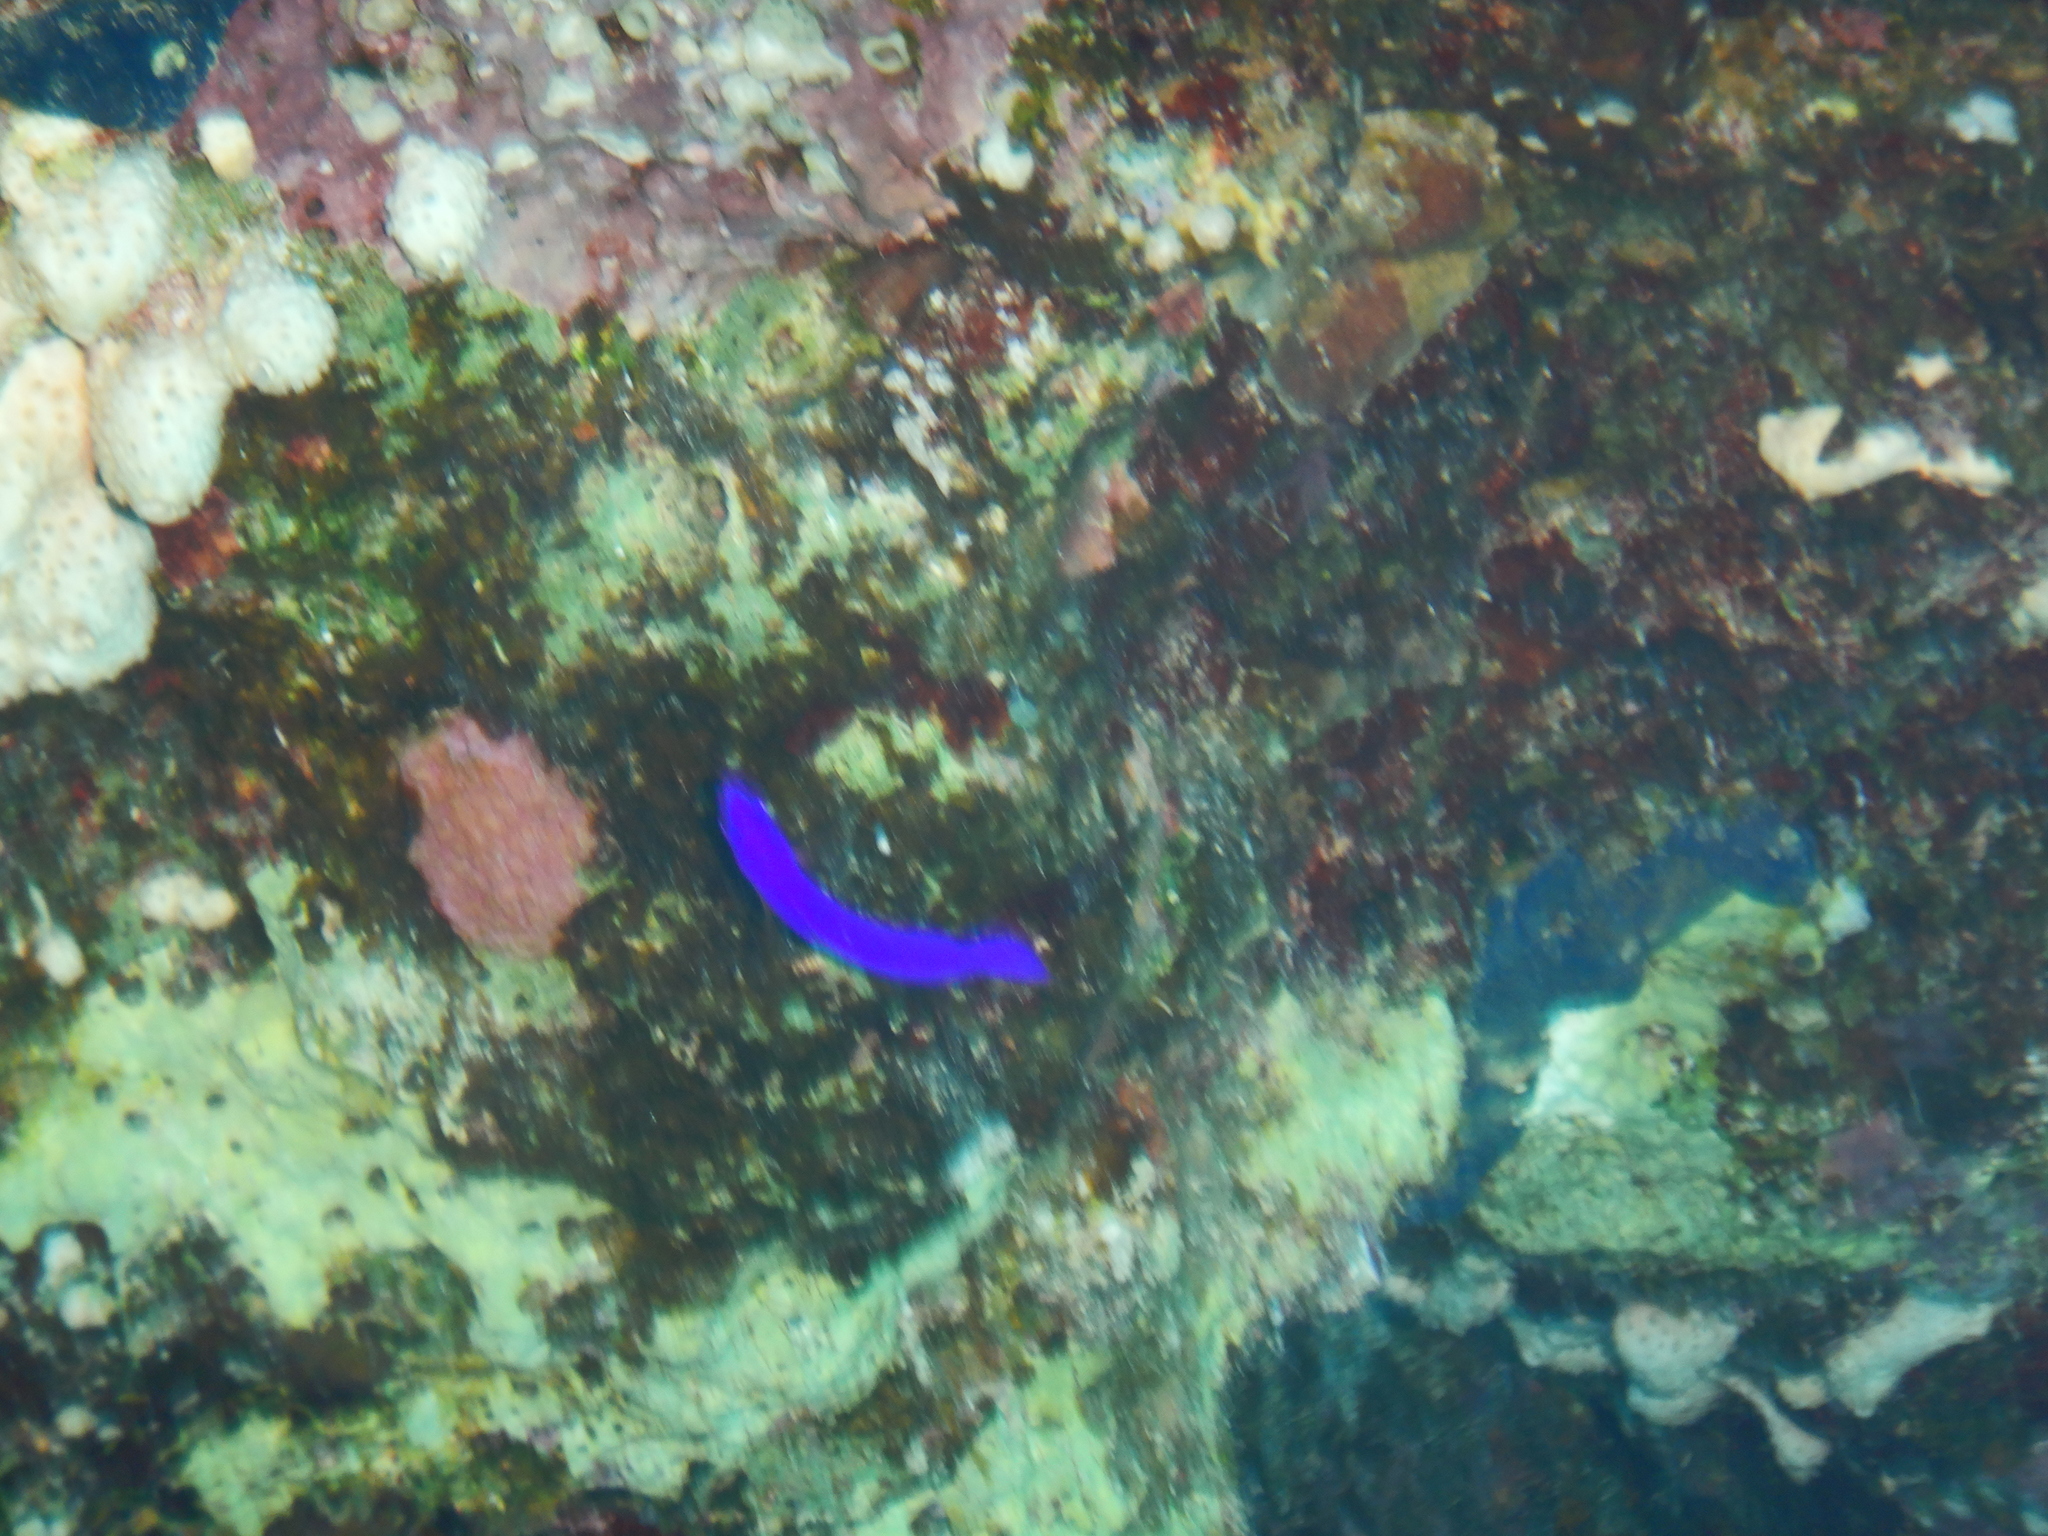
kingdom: Animalia
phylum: Chordata
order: Perciformes
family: Pseudochromidae
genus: Pseudochromis
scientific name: Pseudochromis fridmani
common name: Orchid dottyback
